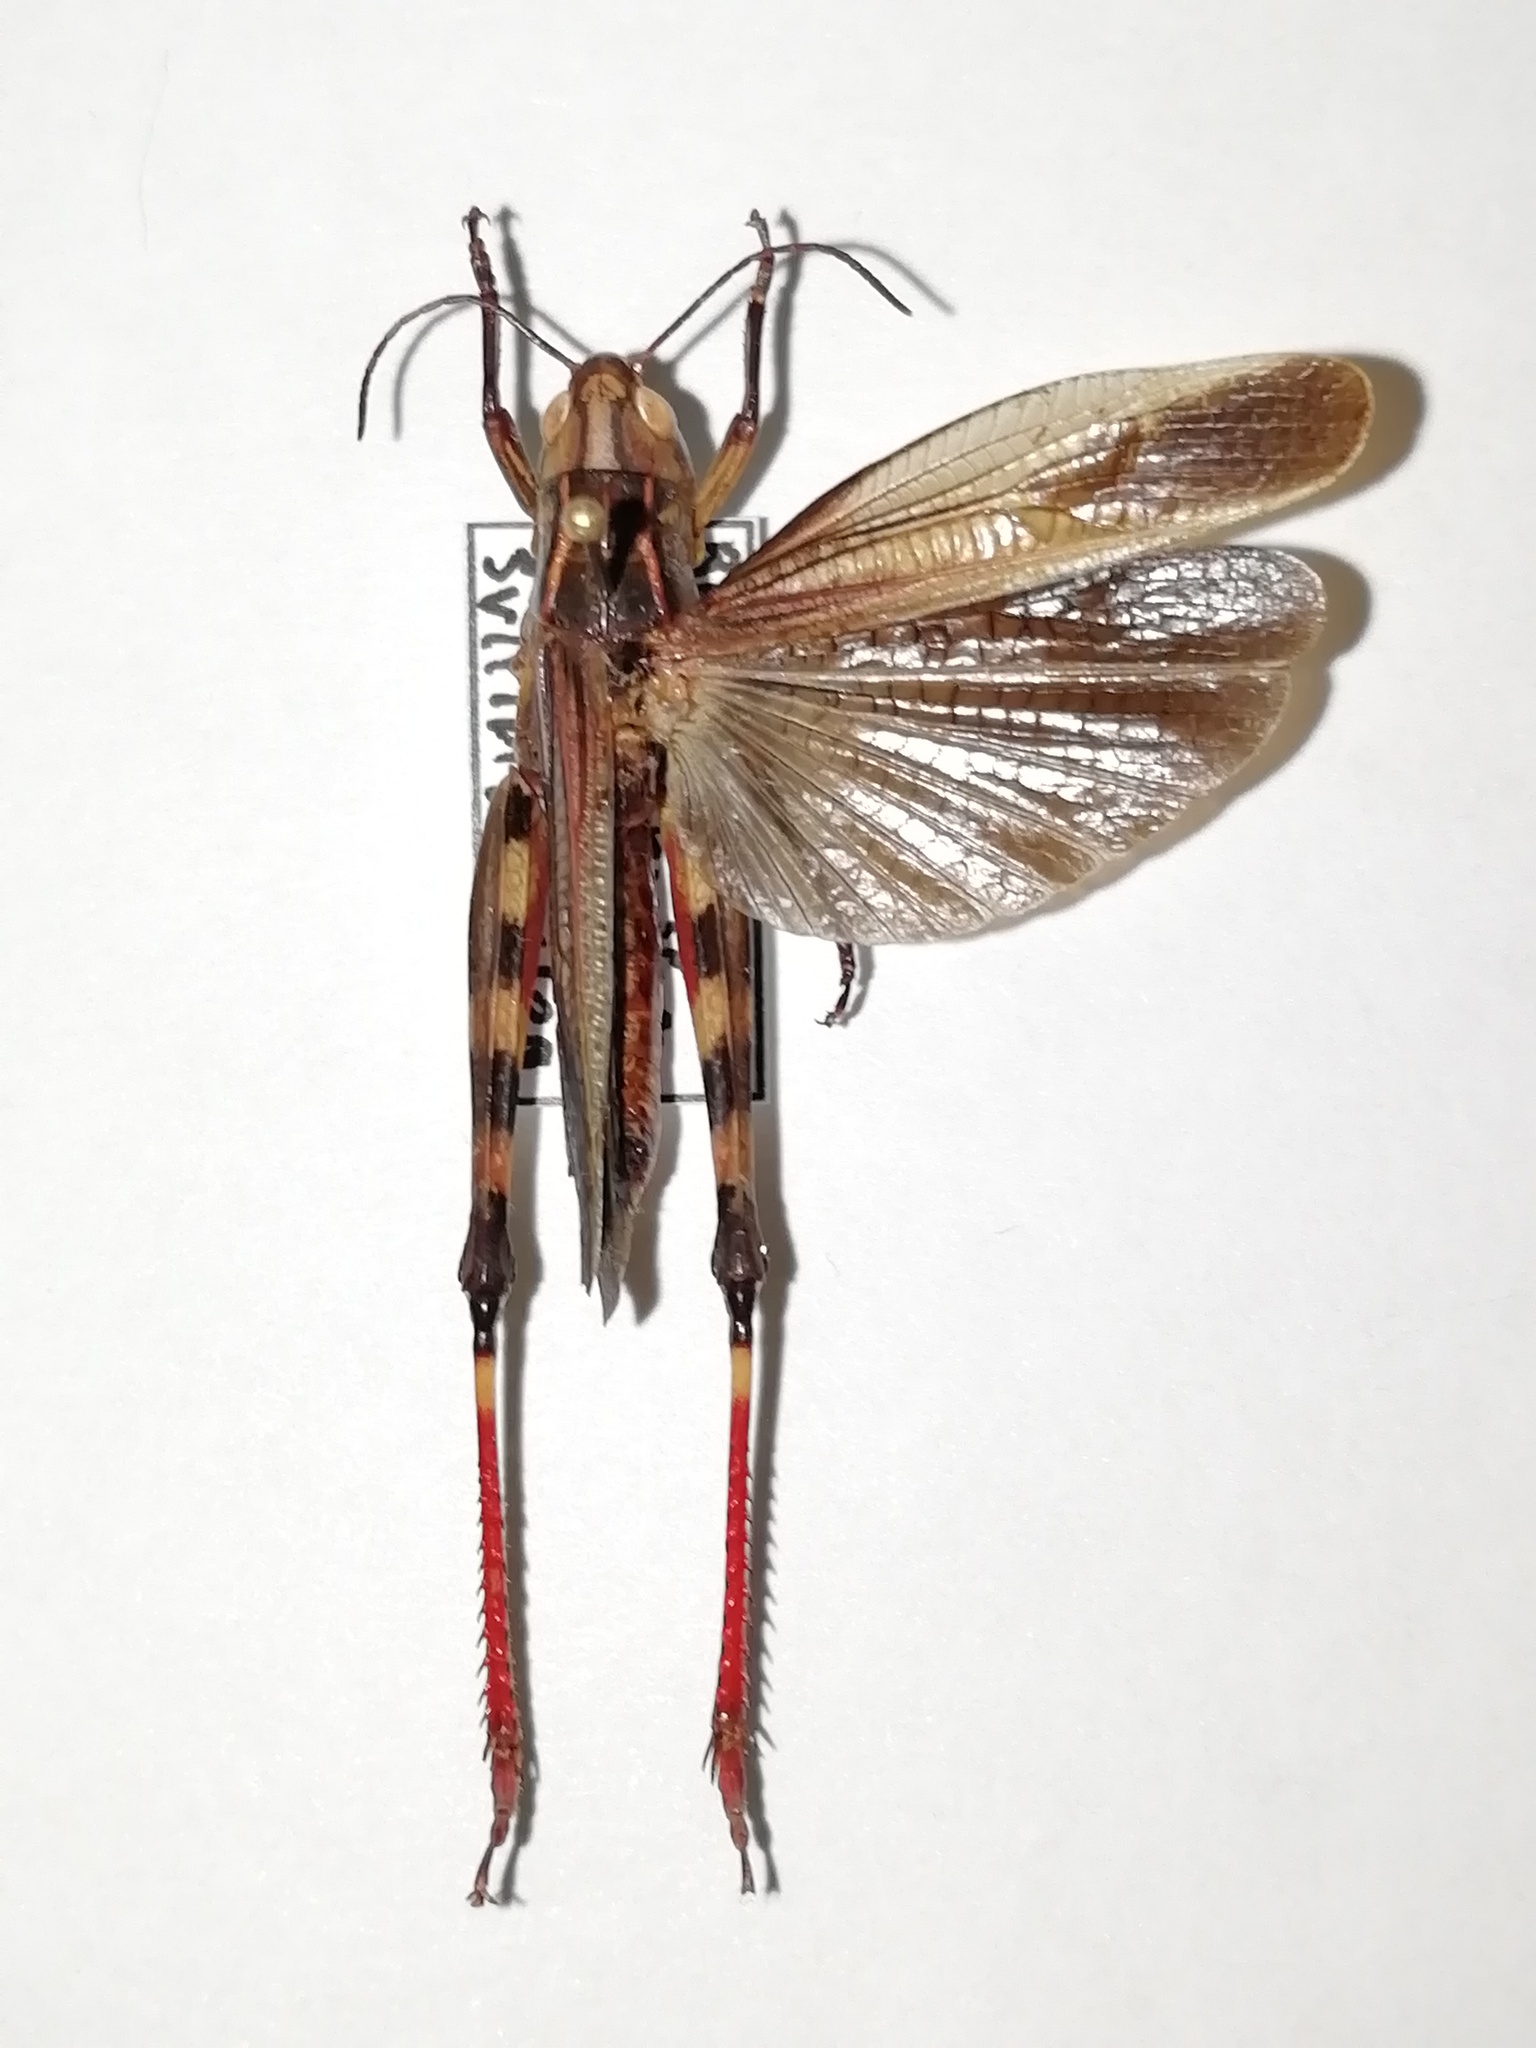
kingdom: Animalia
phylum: Arthropoda
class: Insecta
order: Orthoptera
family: Acrididae
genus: Arcyptera
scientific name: Arcyptera fusca
